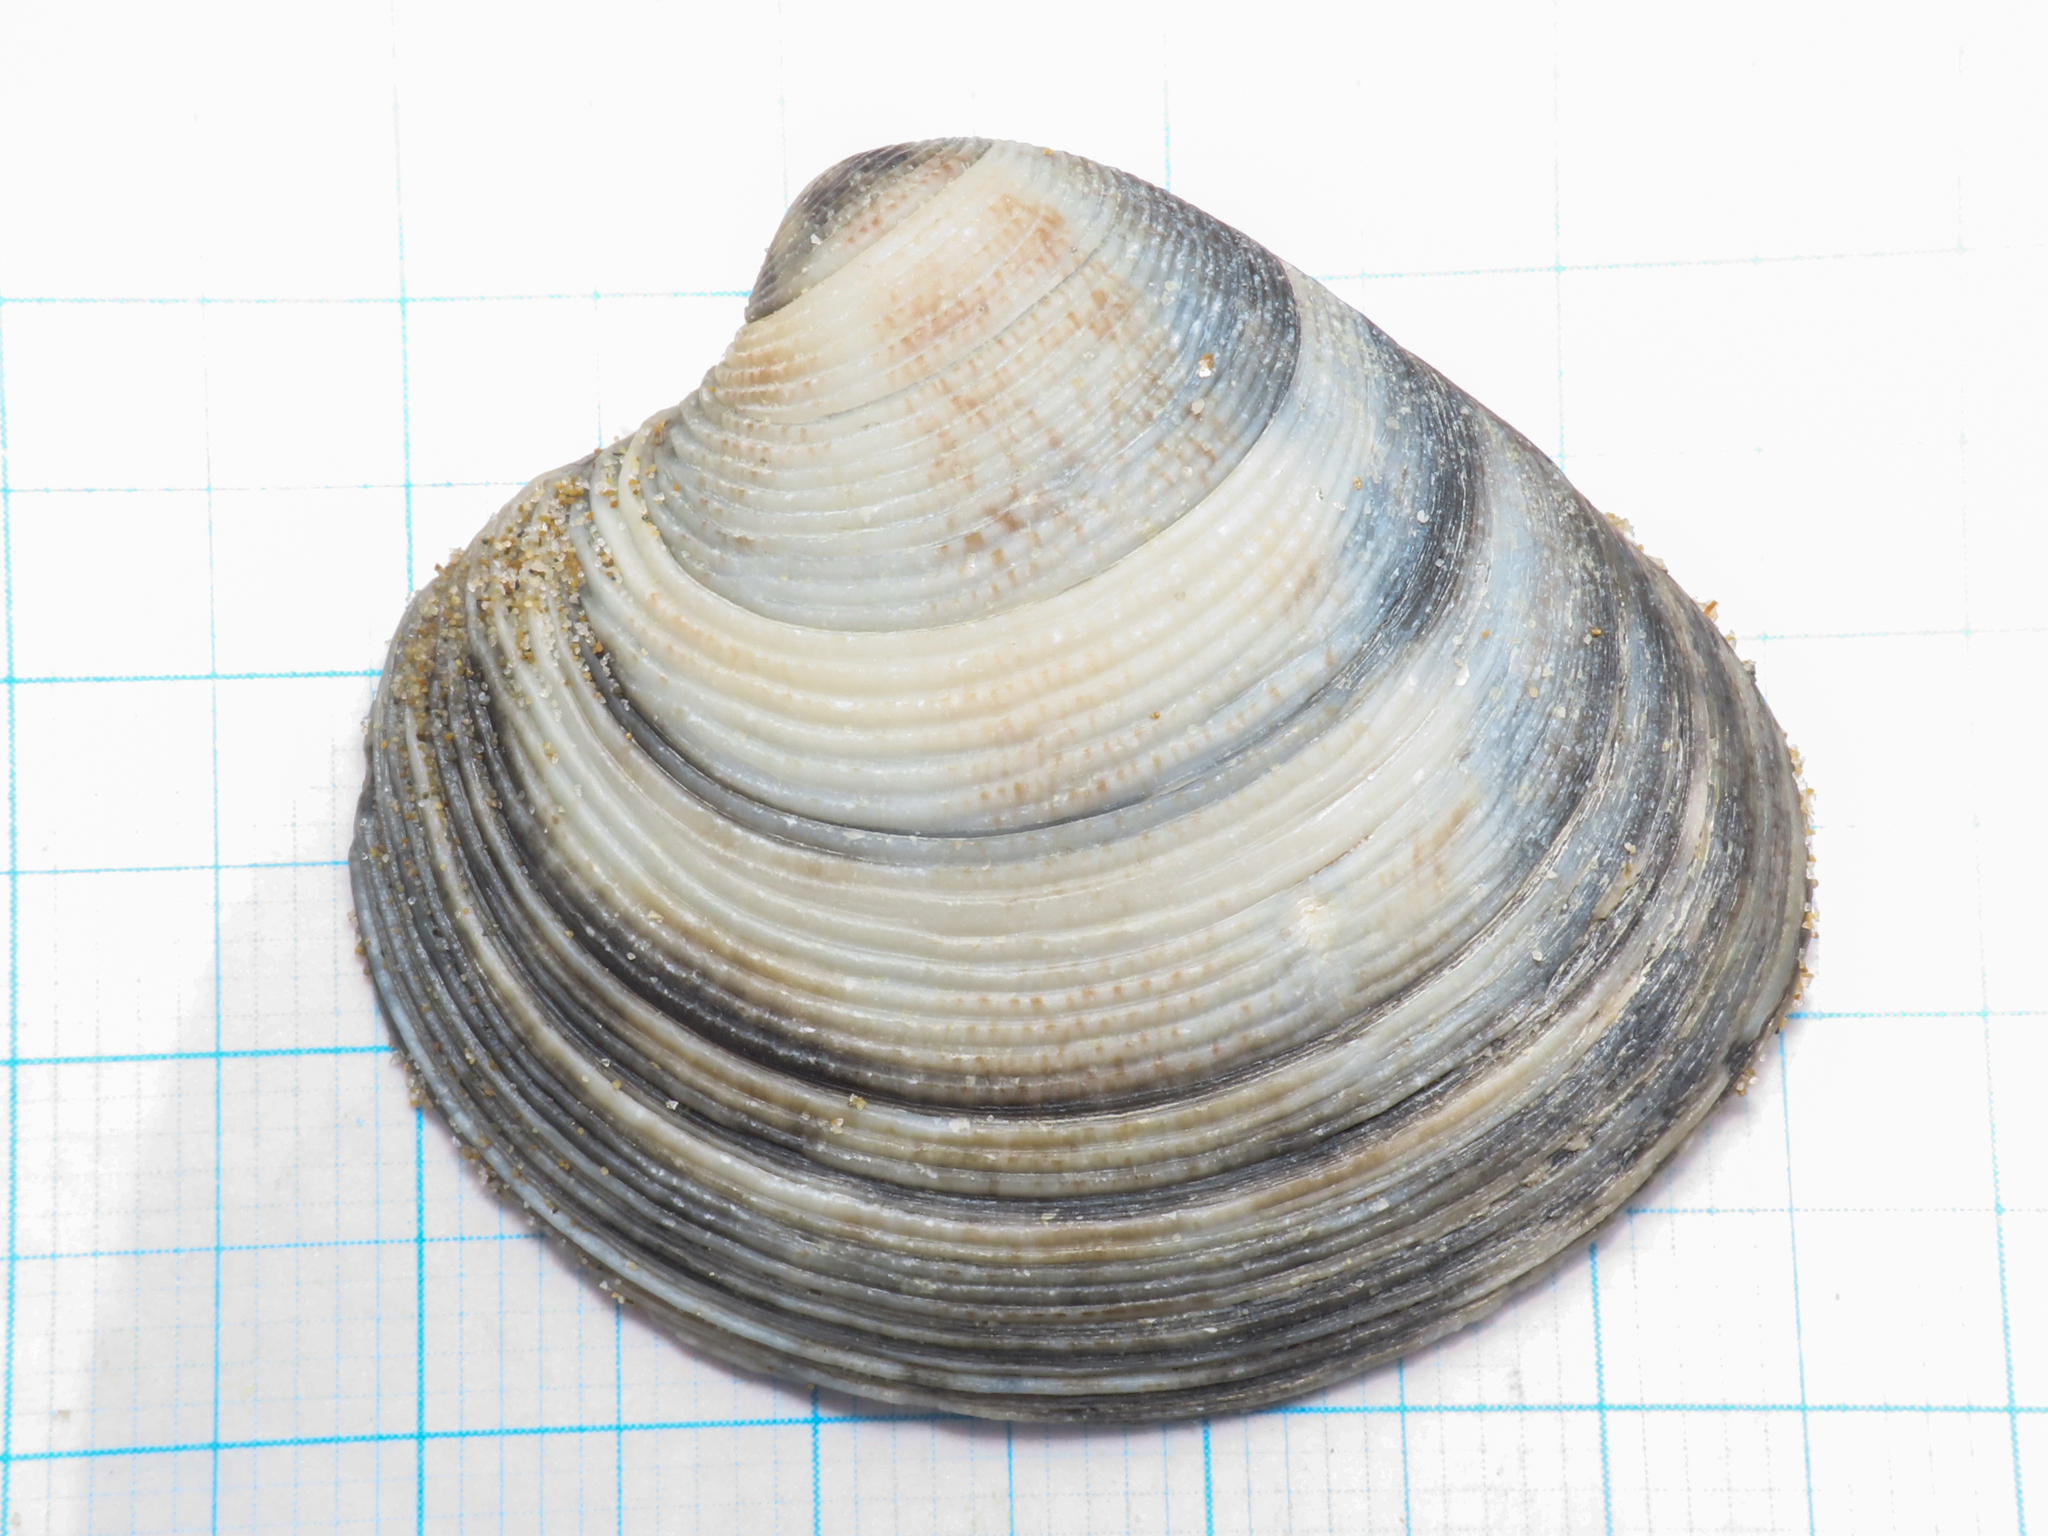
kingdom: Animalia
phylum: Mollusca
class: Bivalvia
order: Venerida
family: Veneridae
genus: Chamelea
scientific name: Chamelea gallina
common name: Chicken venus
